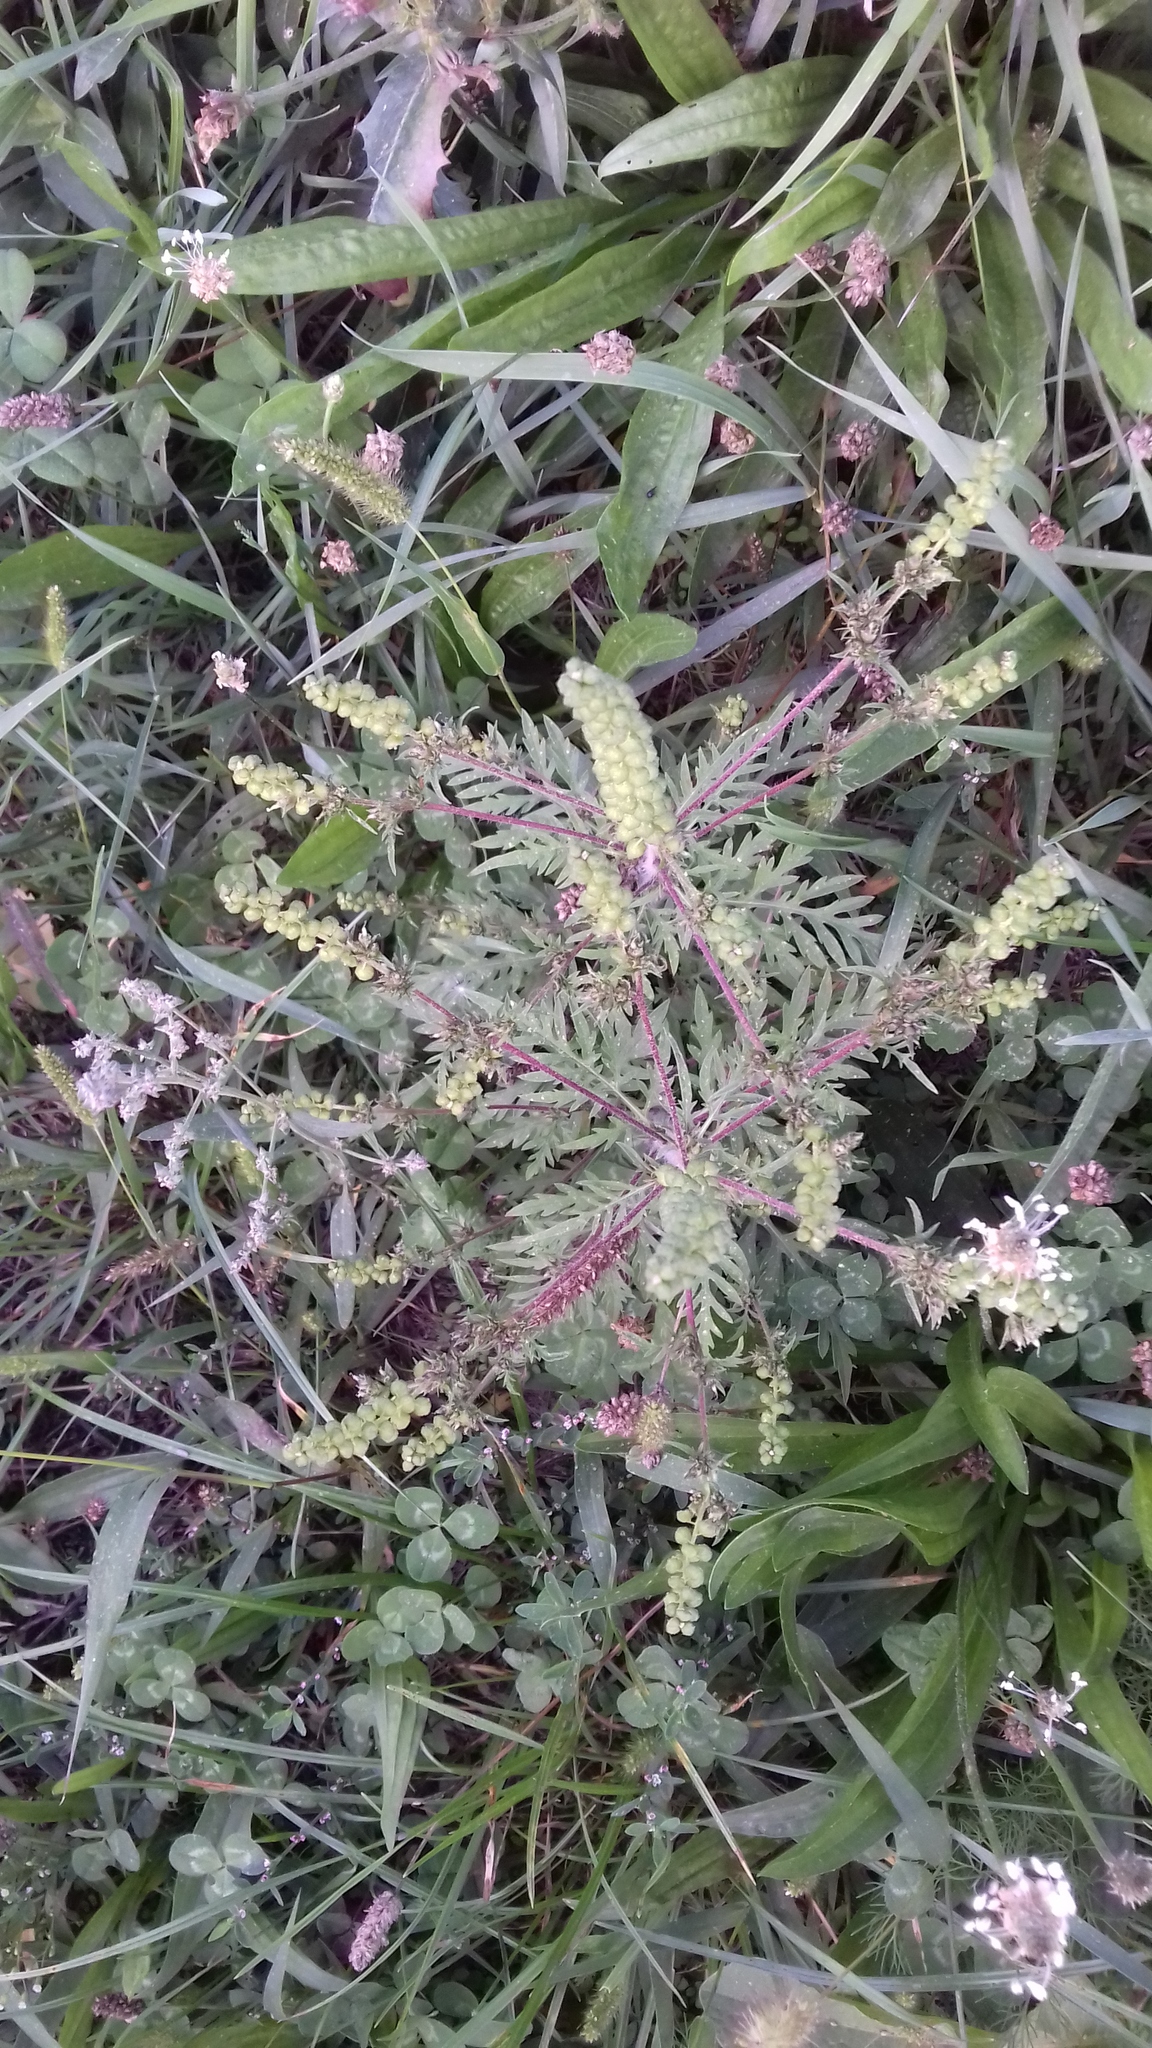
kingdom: Plantae
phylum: Tracheophyta
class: Magnoliopsida
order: Asterales
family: Asteraceae
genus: Ambrosia
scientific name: Ambrosia artemisiifolia
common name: Annual ragweed
